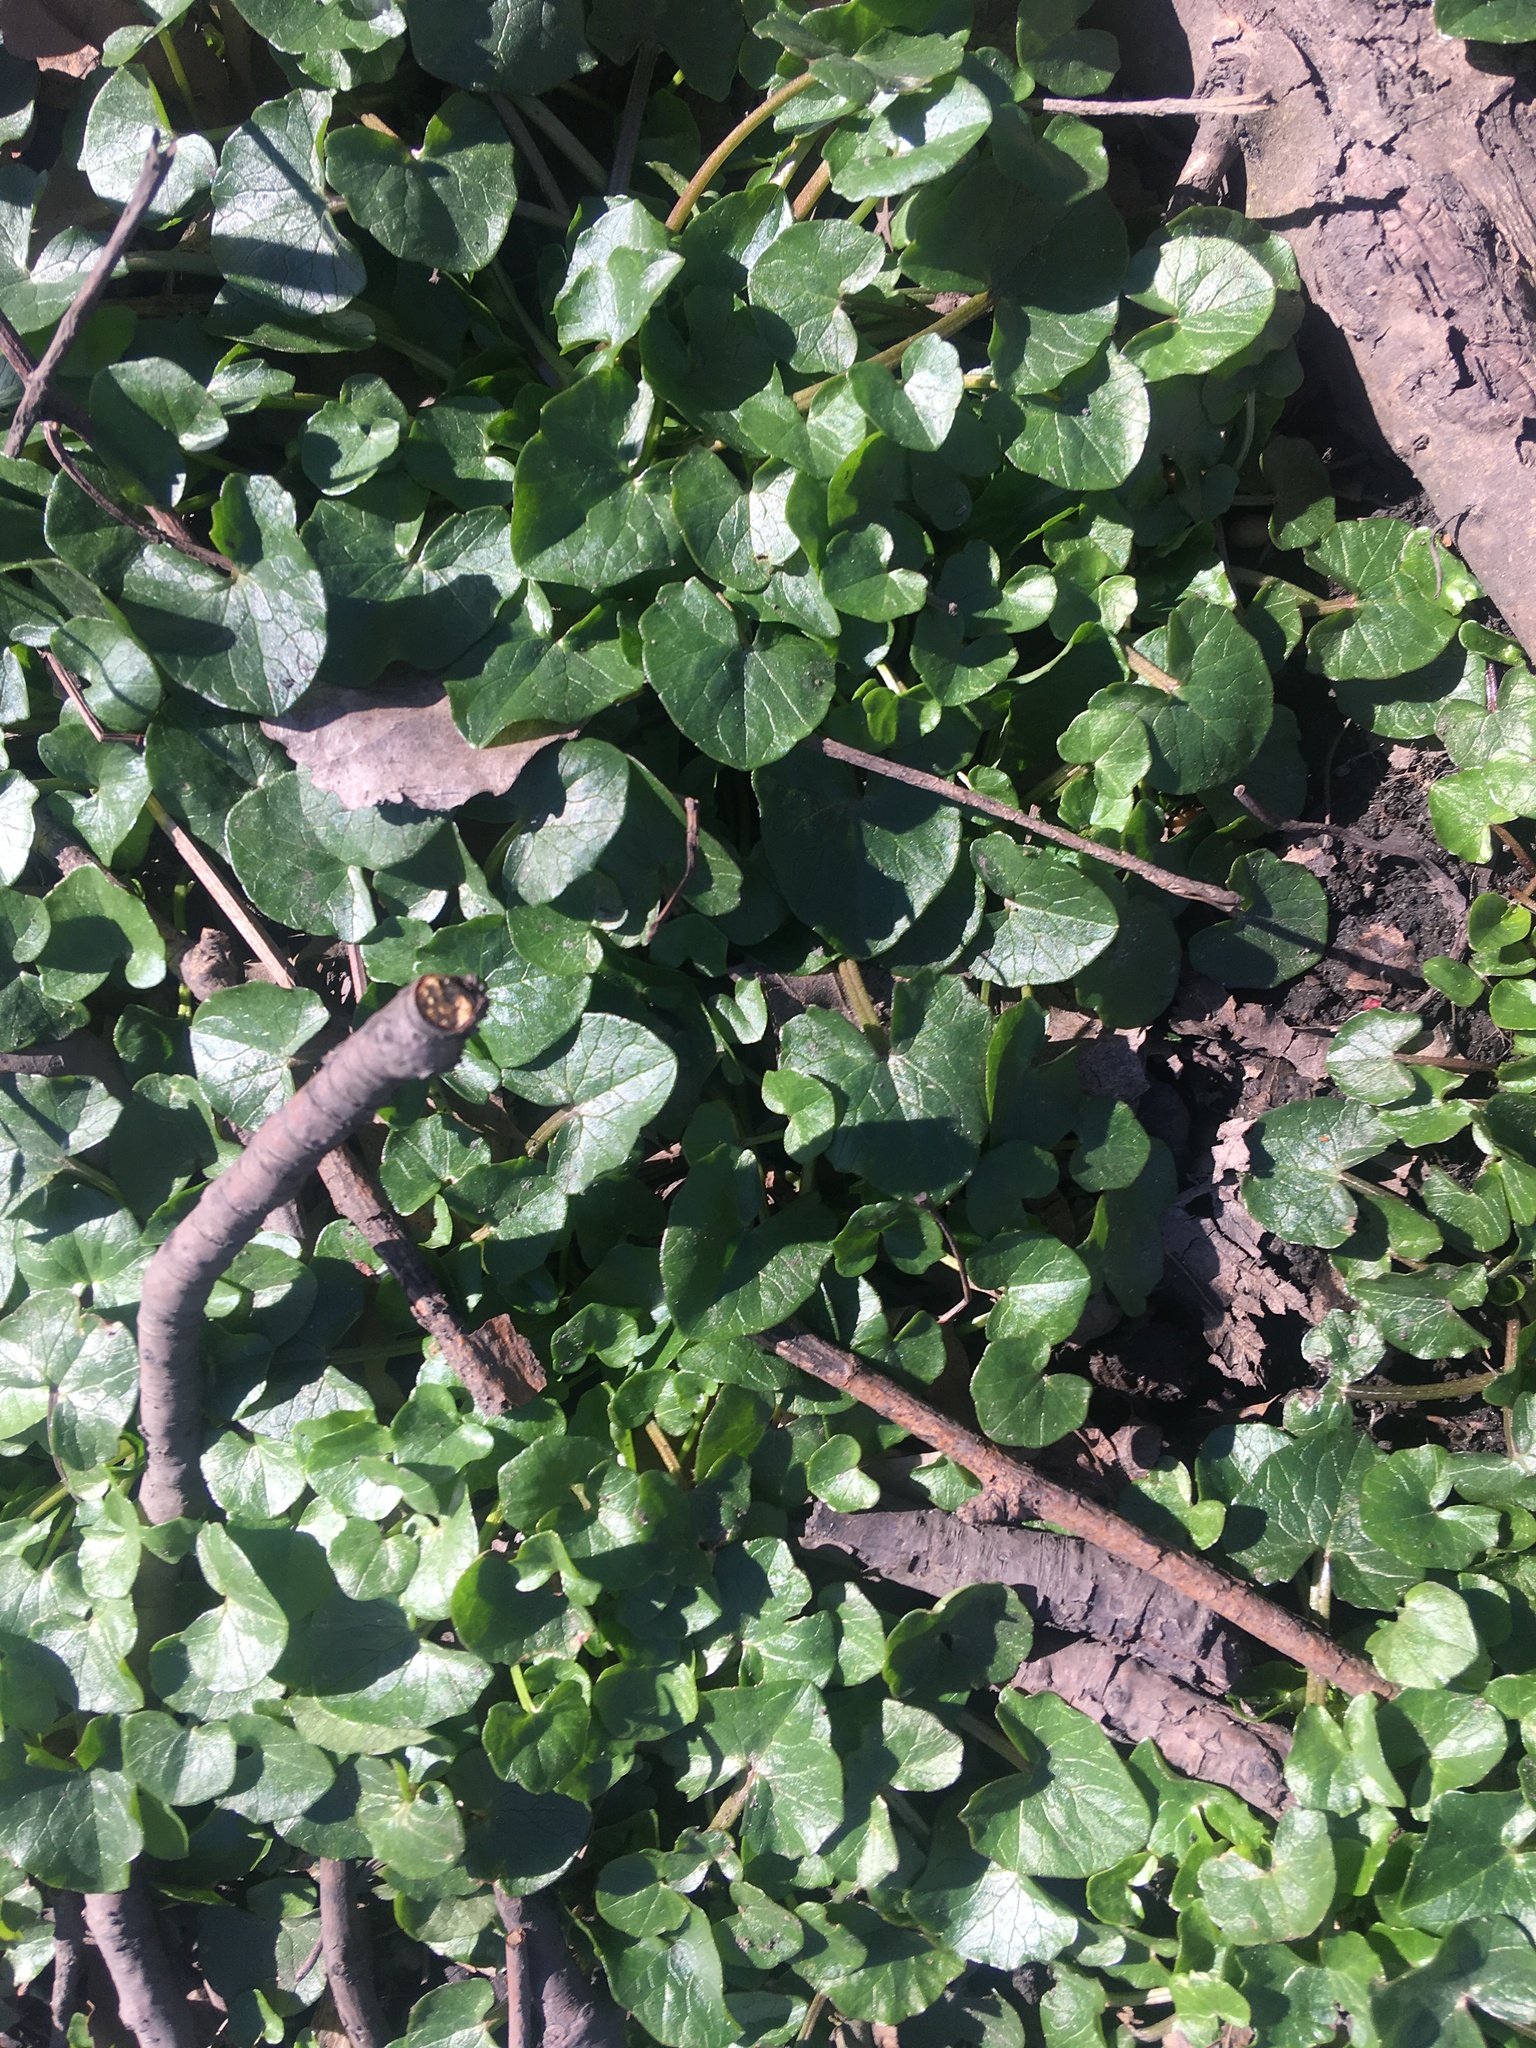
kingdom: Plantae
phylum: Tracheophyta
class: Magnoliopsida
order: Ranunculales
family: Ranunculaceae
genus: Ficaria
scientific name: Ficaria verna
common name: Lesser celandine
